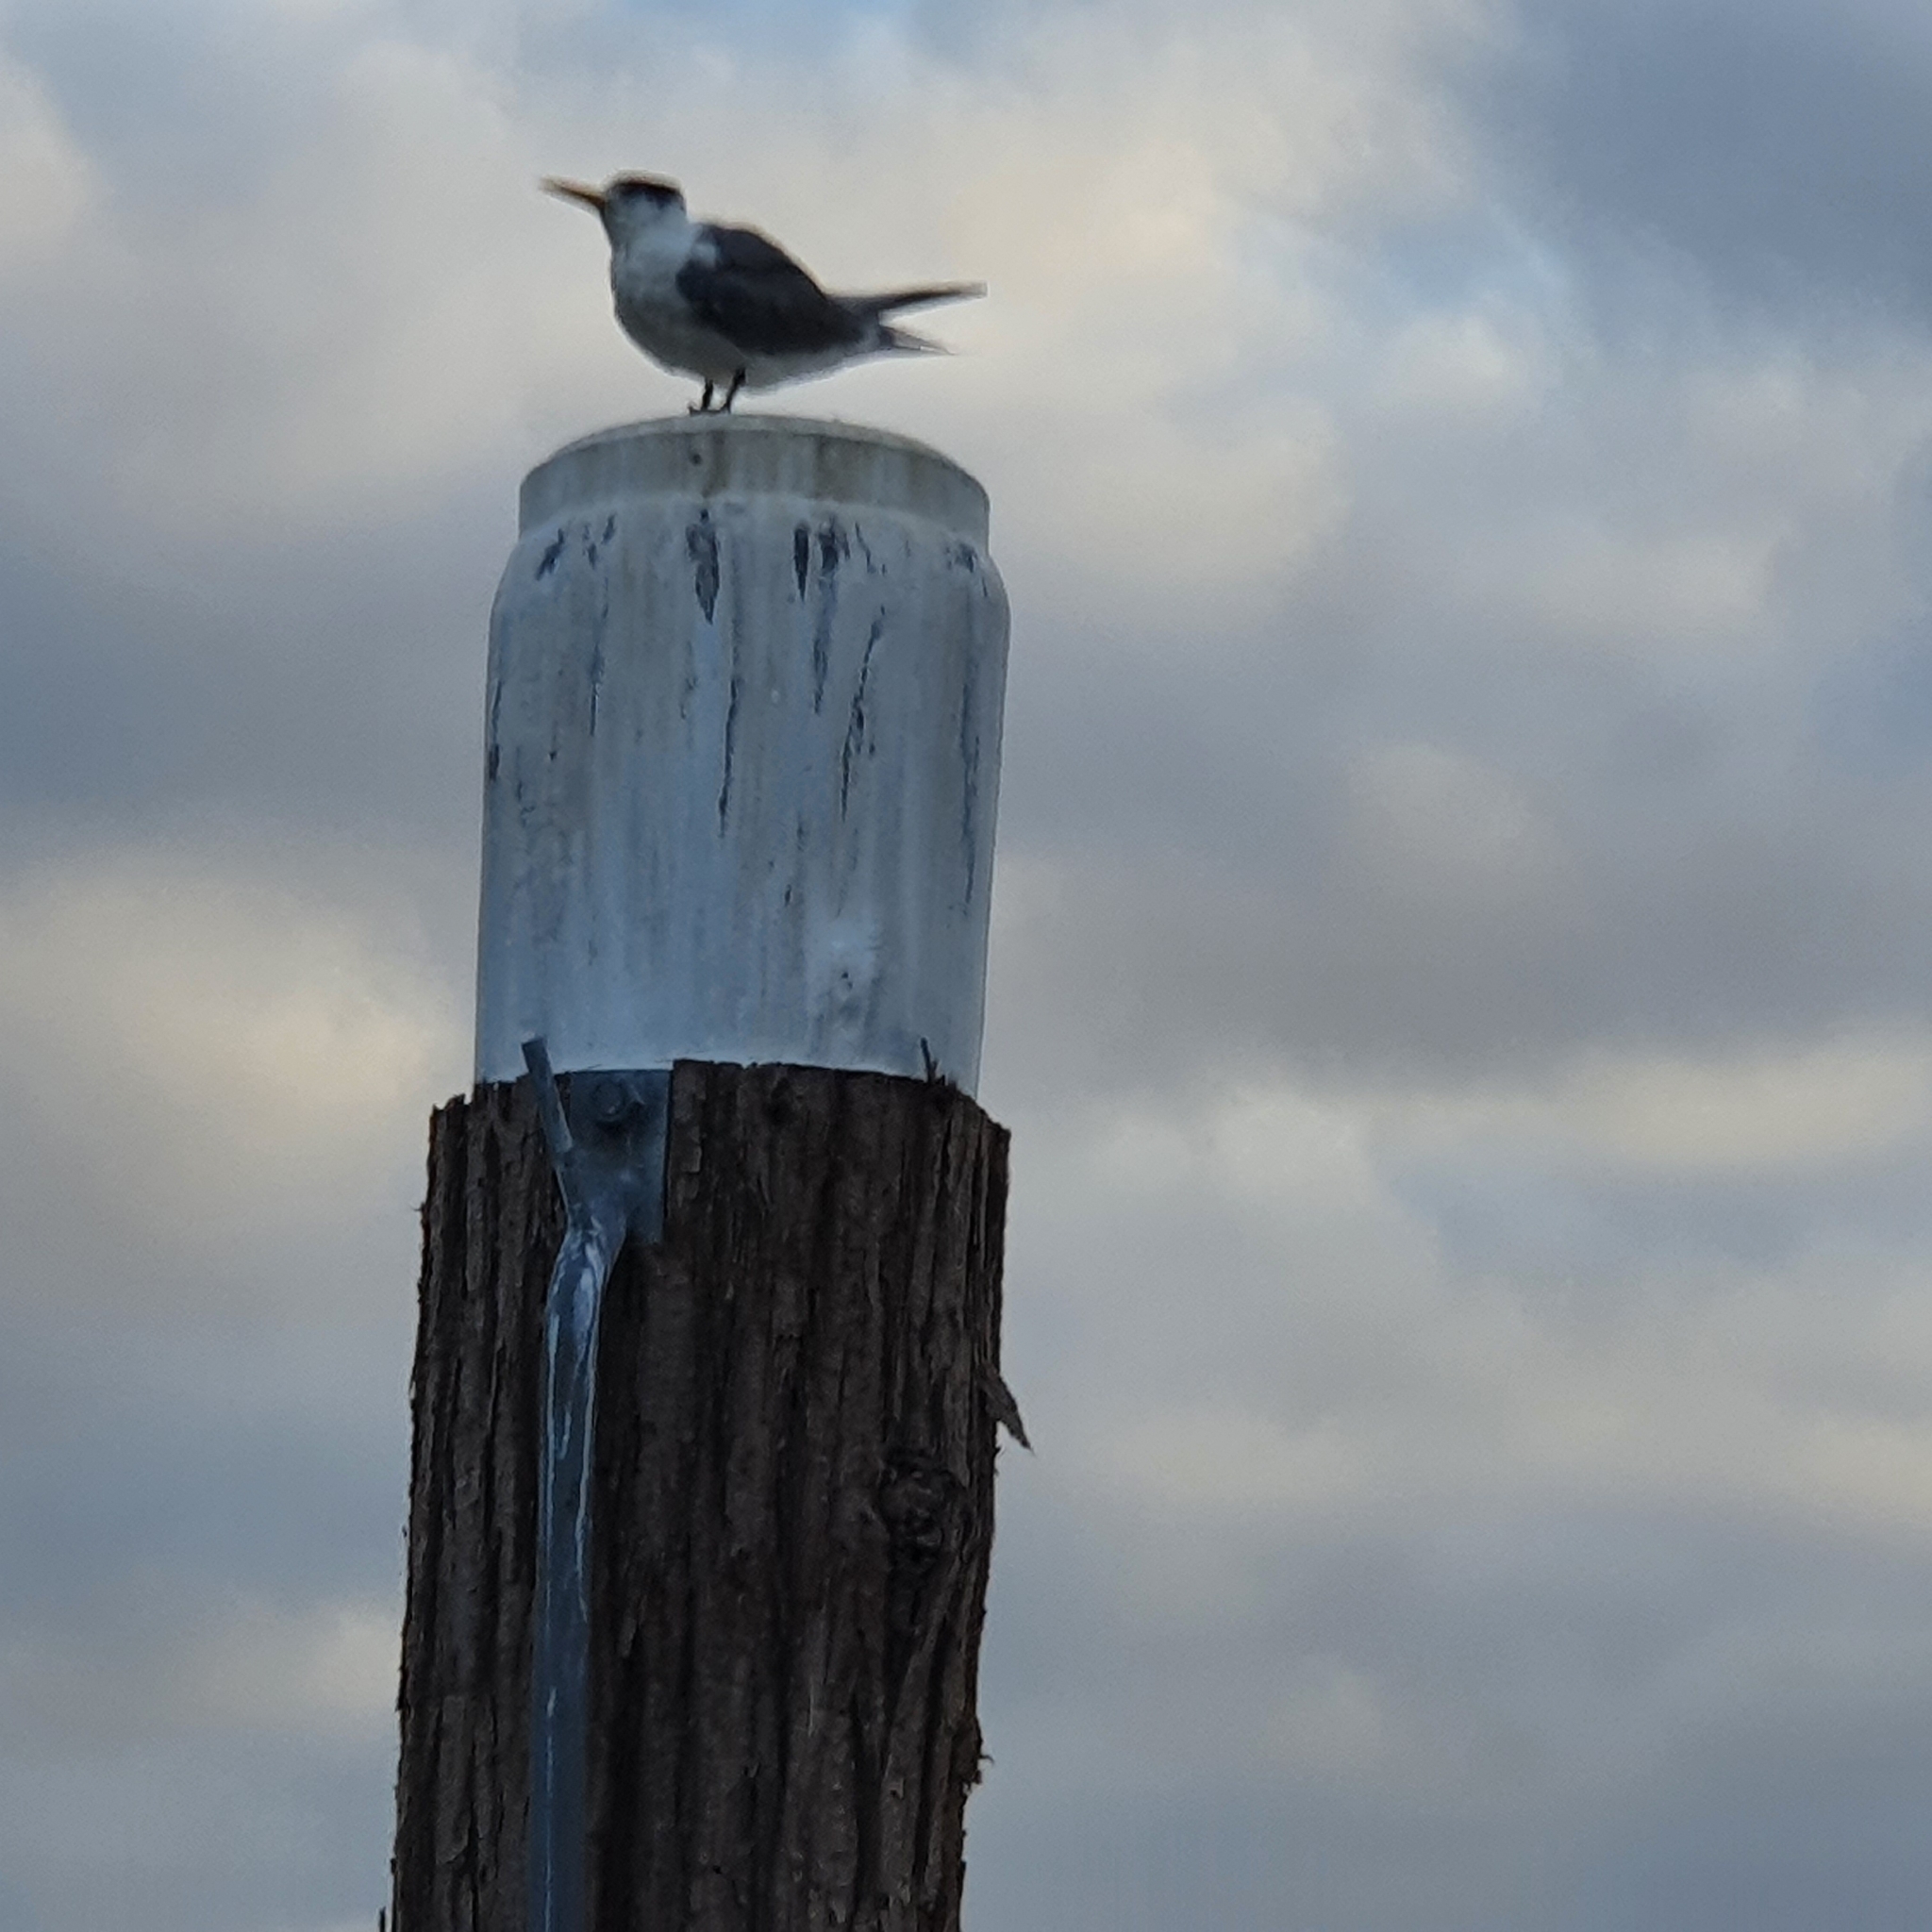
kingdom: Animalia
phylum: Chordata
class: Aves
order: Charadriiformes
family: Laridae
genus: Thalasseus
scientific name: Thalasseus bergii
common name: Greater crested tern
